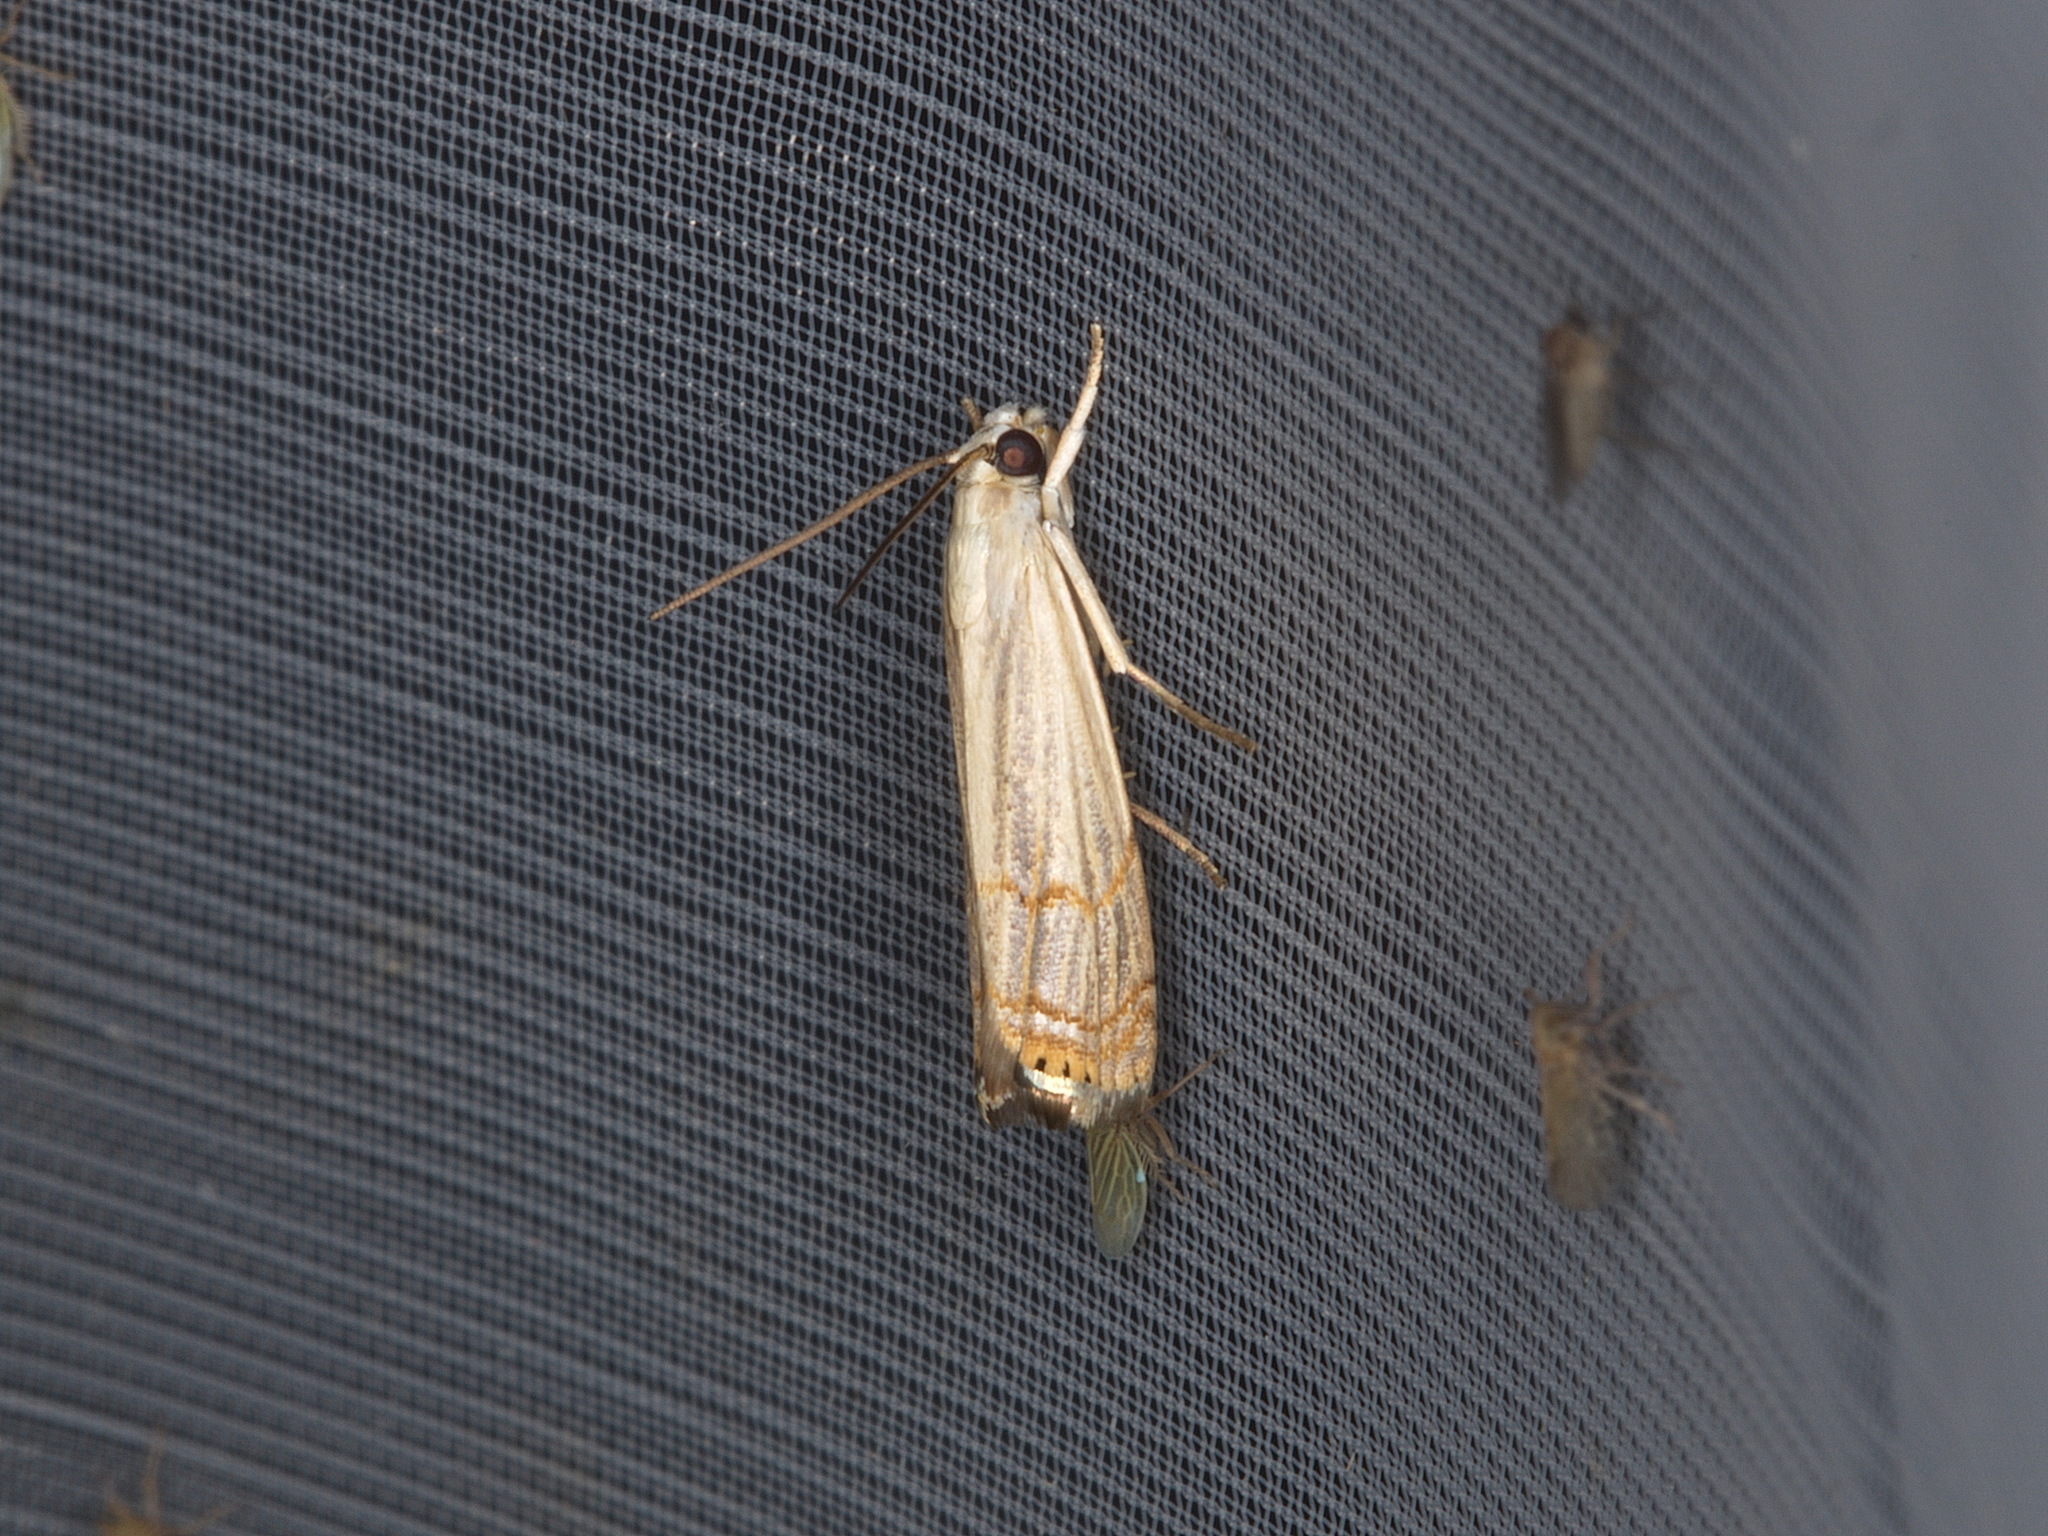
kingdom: Animalia
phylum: Arthropoda
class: Insecta
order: Lepidoptera
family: Crambidae
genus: Parapediasia
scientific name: Parapediasia decorellus
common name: Graceful grass-veneer
